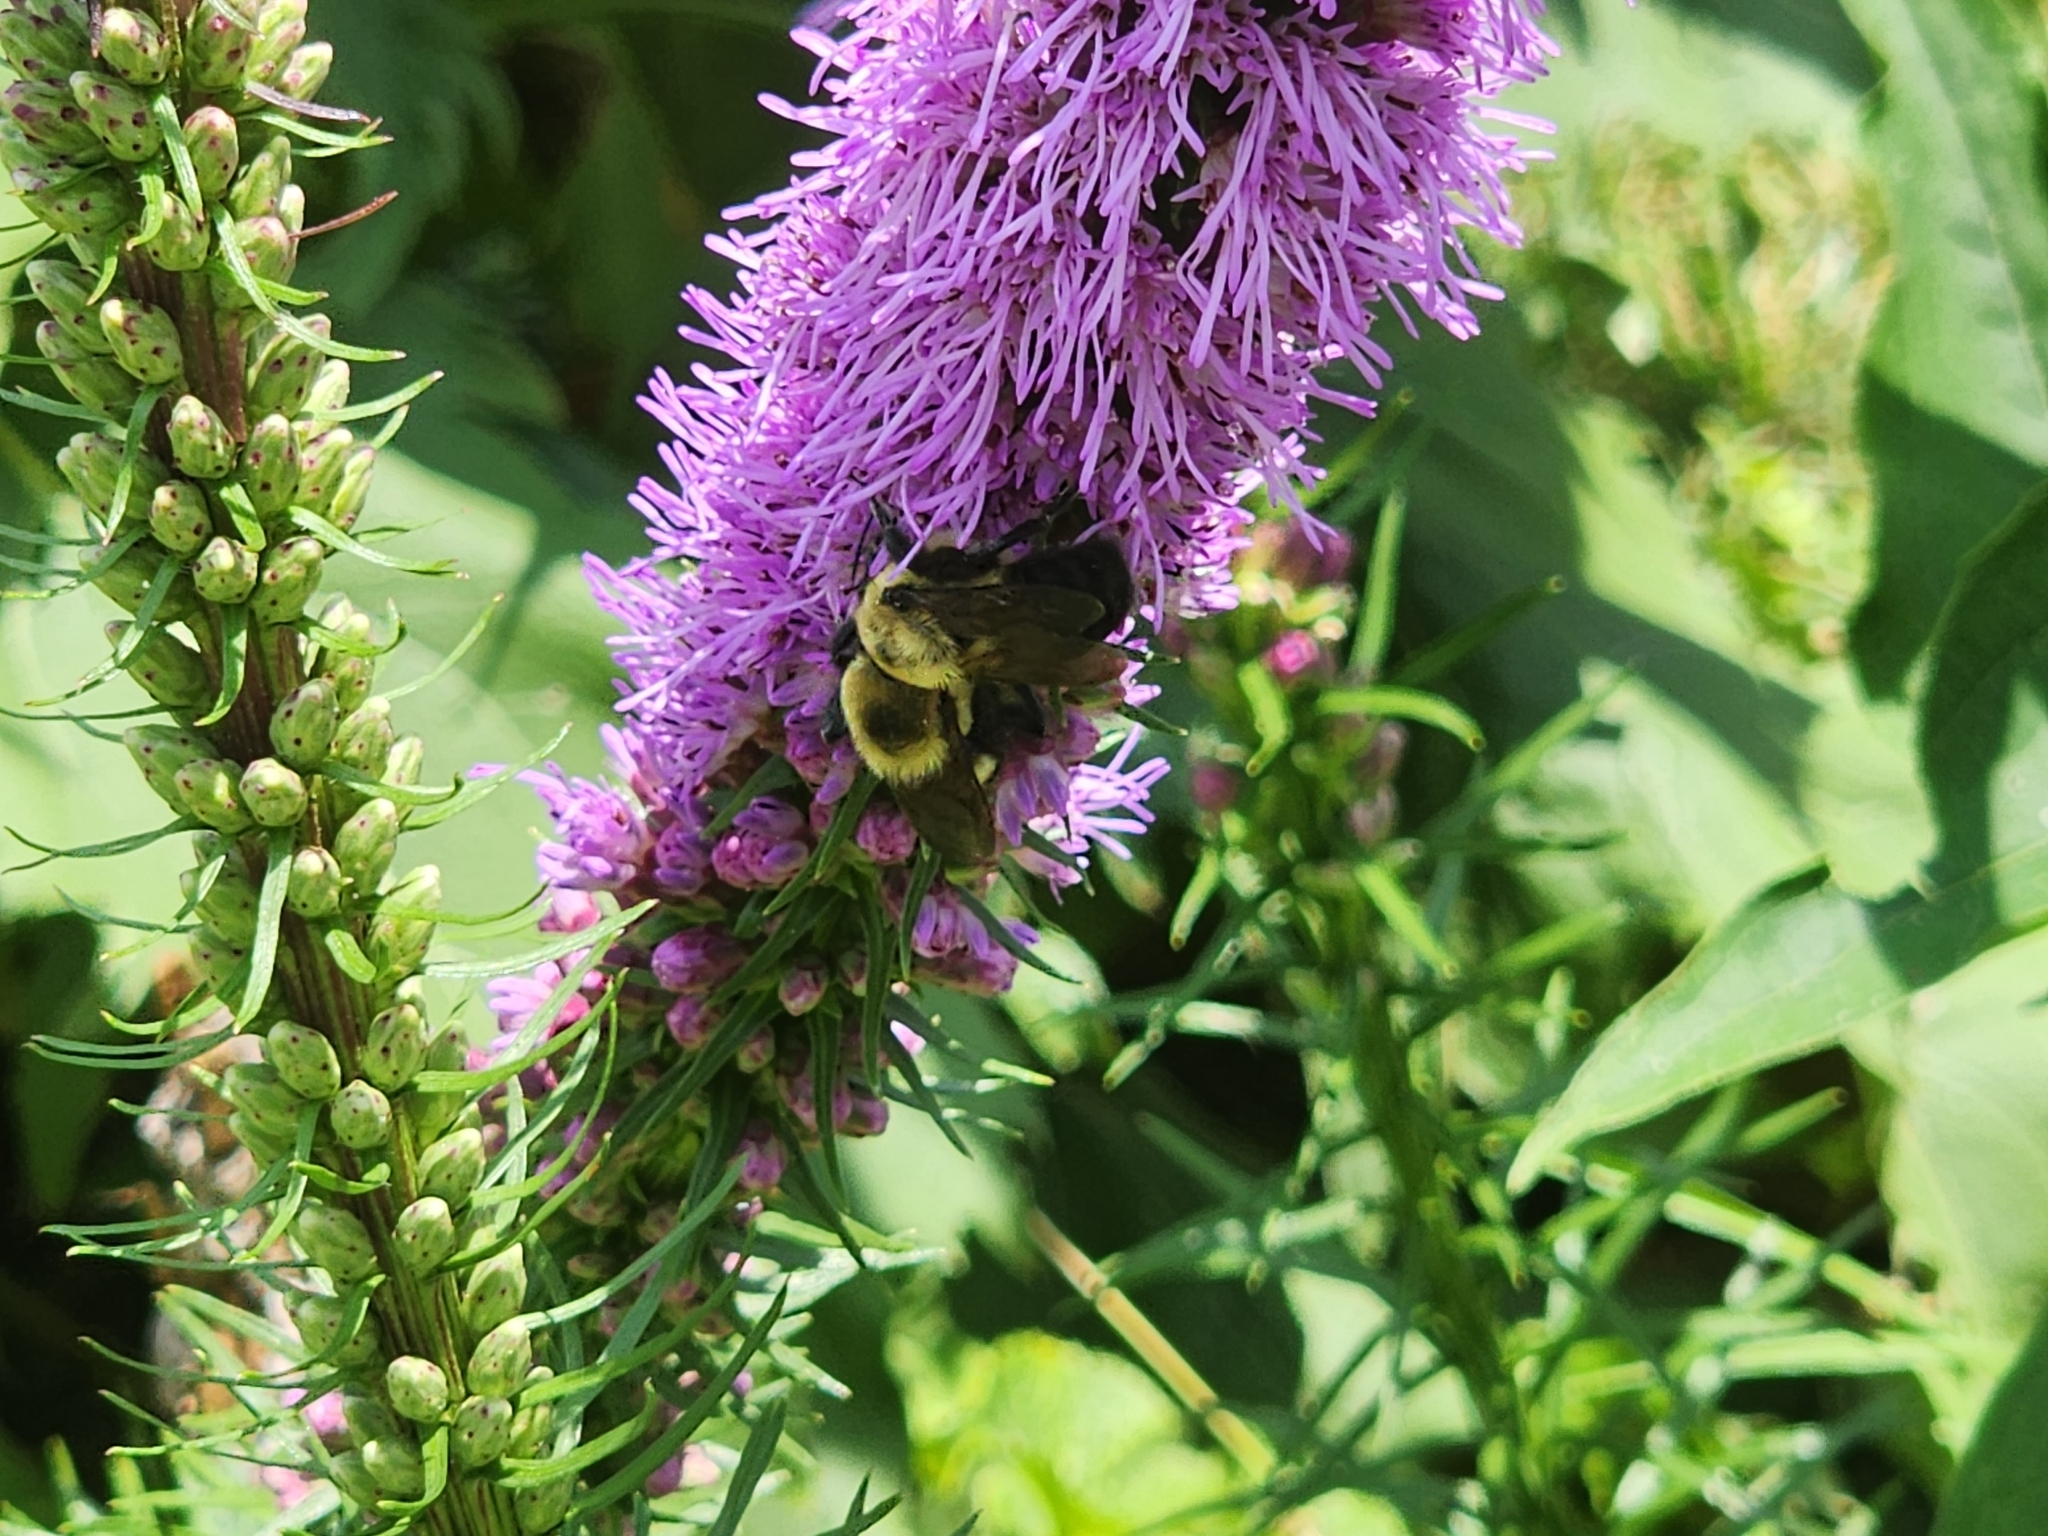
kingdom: Animalia
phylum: Arthropoda
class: Insecta
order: Hymenoptera
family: Apidae
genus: Bombus
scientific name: Bombus griseocollis
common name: Brown-belted bumble bee
